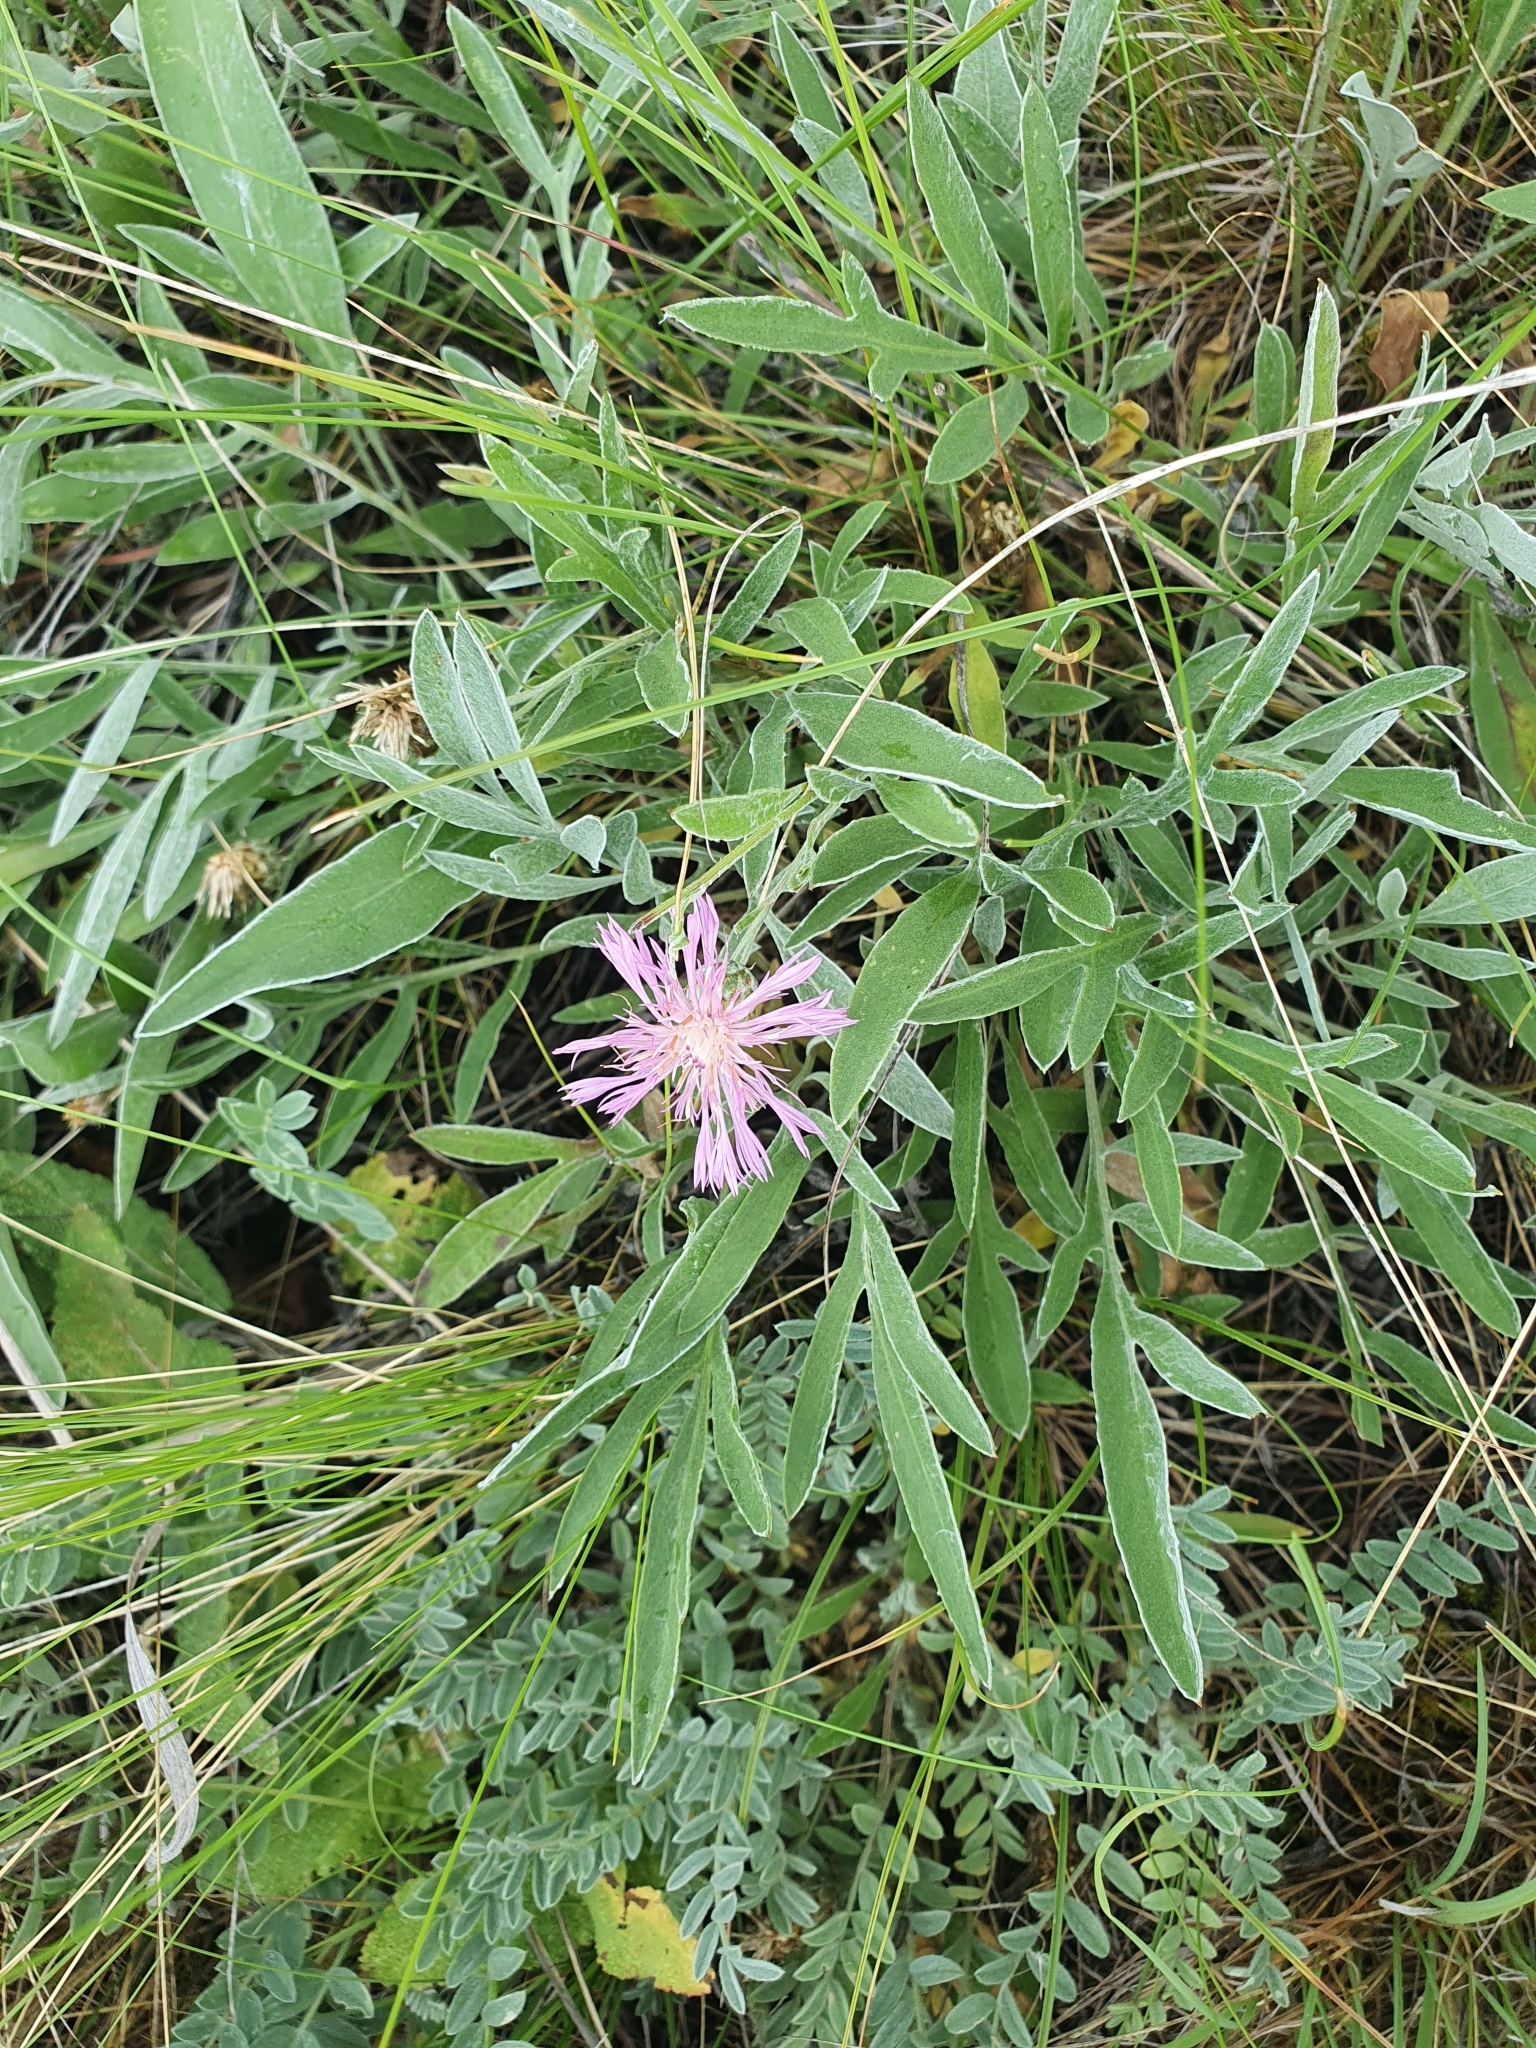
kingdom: Plantae
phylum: Tracheophyta
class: Magnoliopsida
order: Asterales
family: Asteraceae
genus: Psephellus
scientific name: Psephellus sumensis
